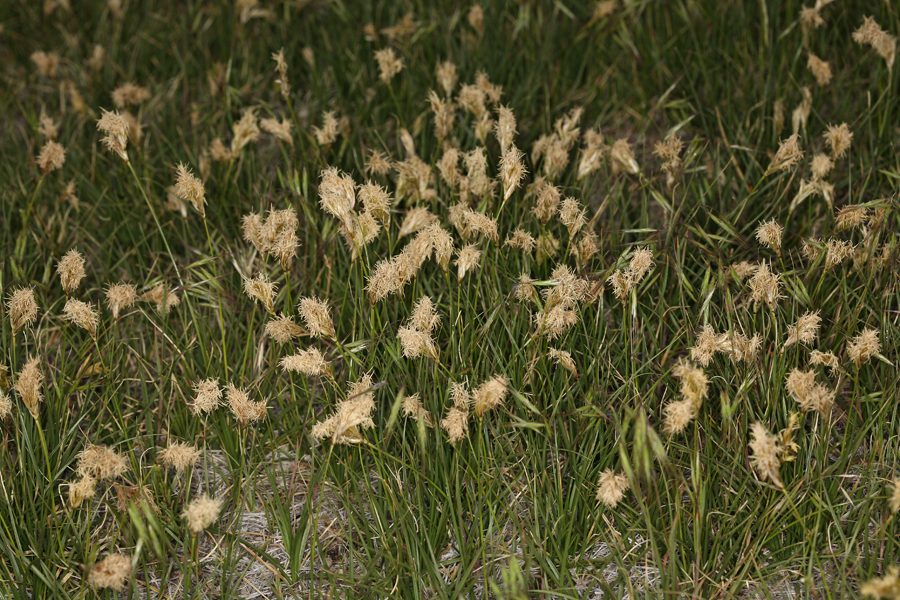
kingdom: Plantae
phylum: Tracheophyta
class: Liliopsida
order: Poales
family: Cyperaceae
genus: Carex
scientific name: Carex douglasii
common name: Douglas' sedge
